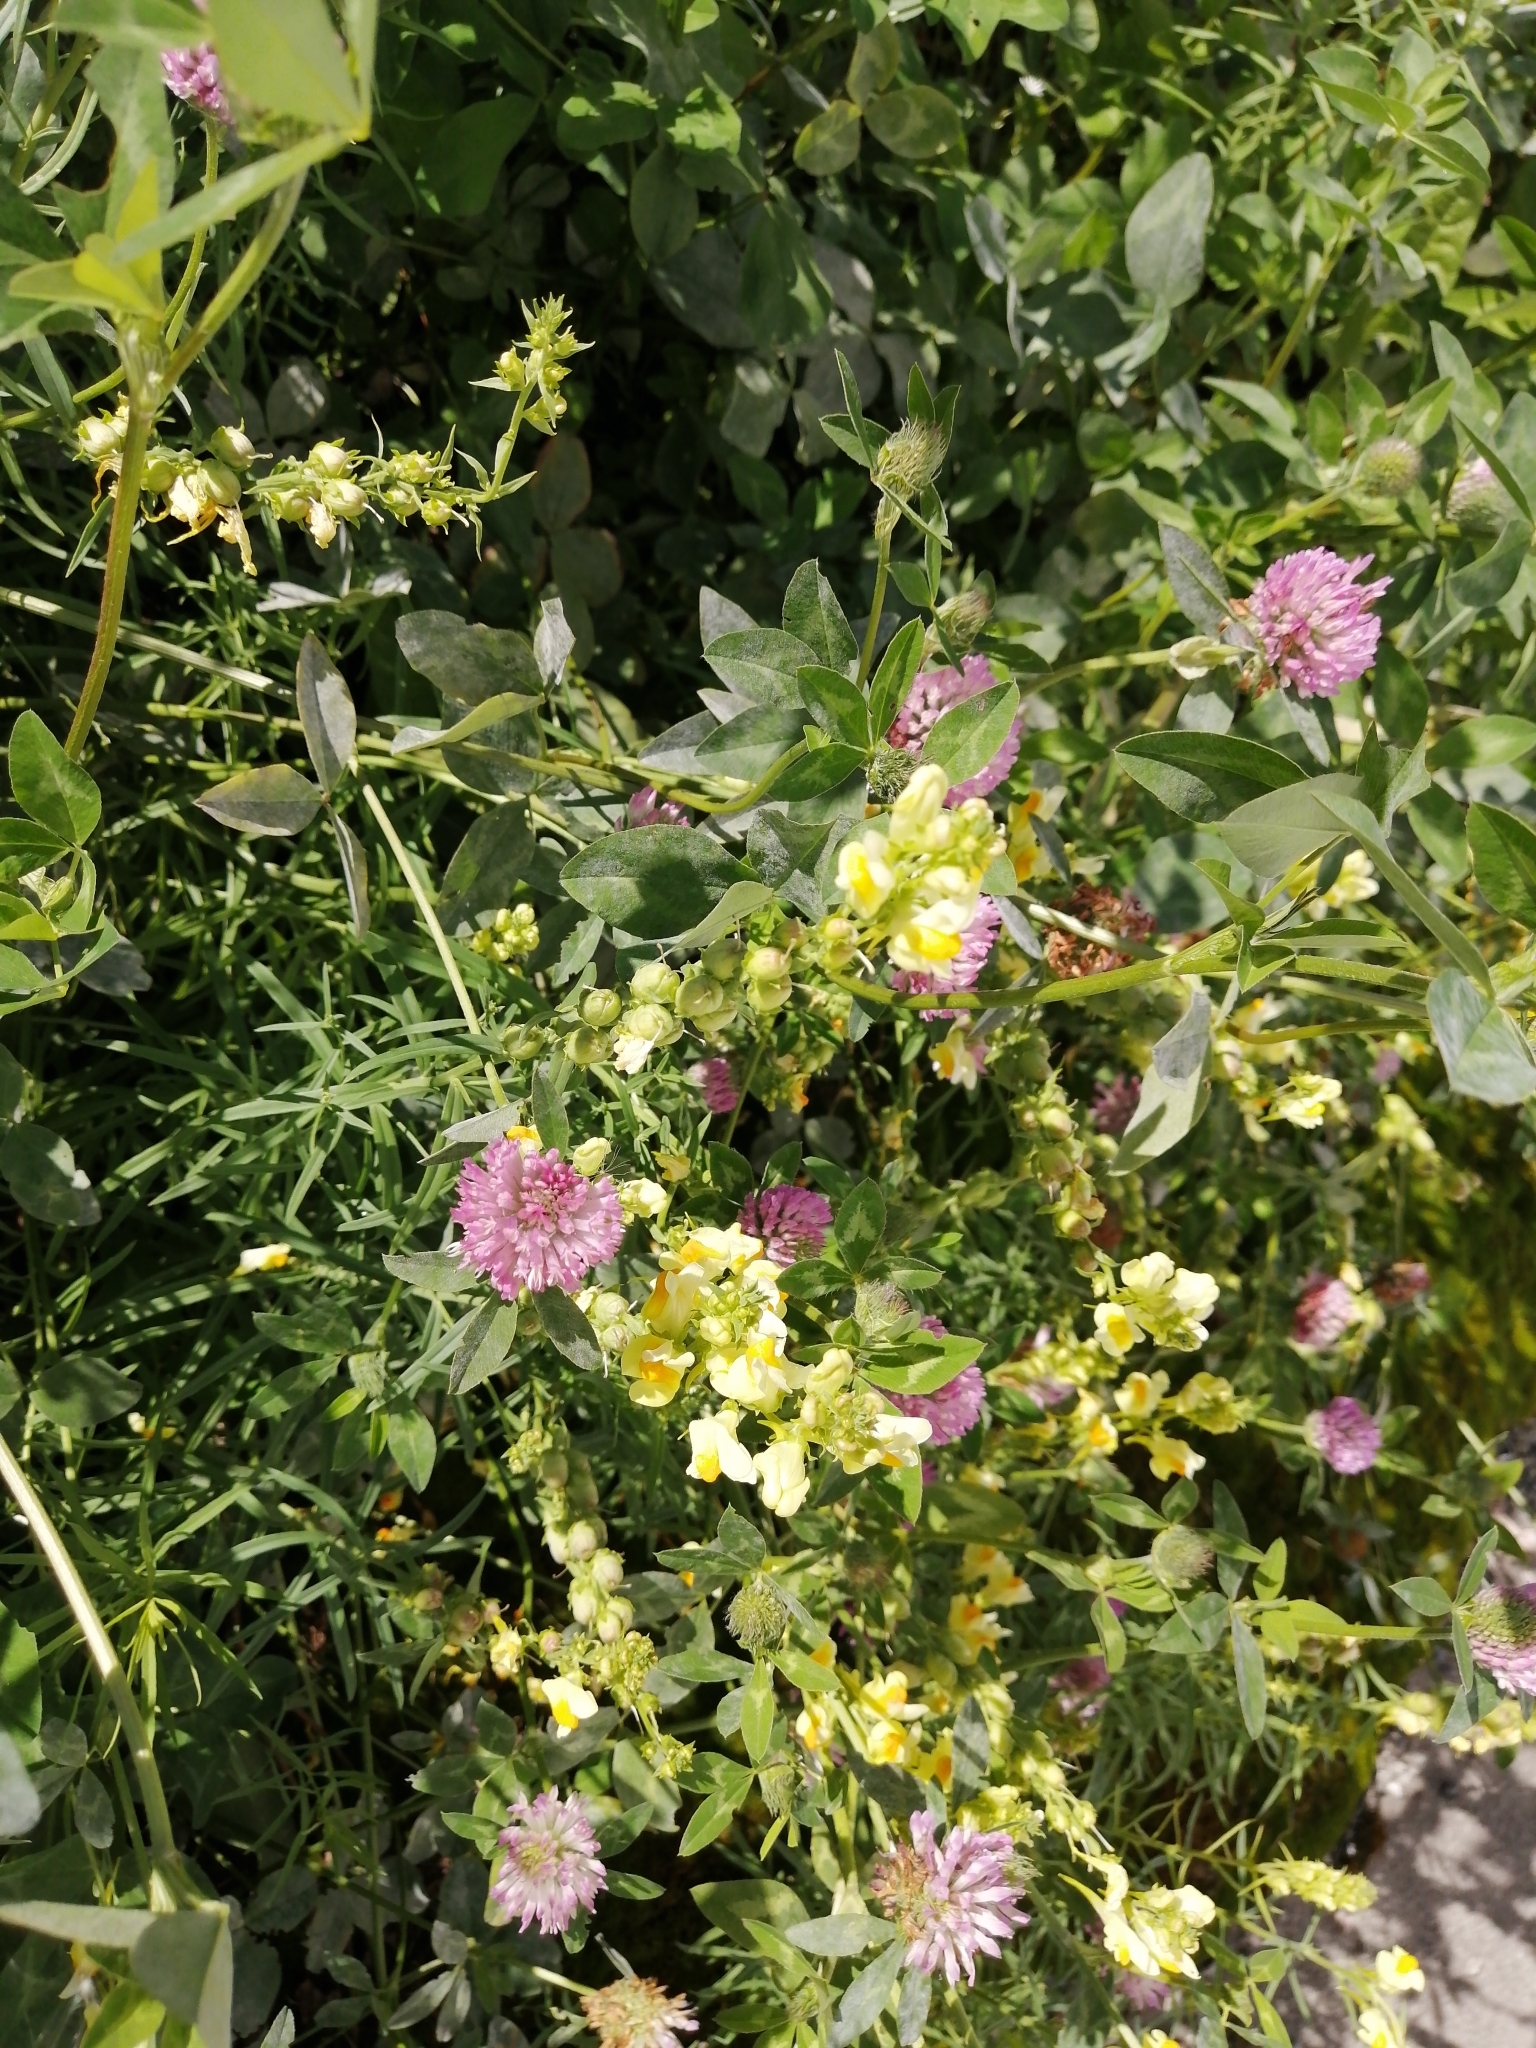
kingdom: Plantae
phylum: Tracheophyta
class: Magnoliopsida
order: Lamiales
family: Plantaginaceae
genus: Linaria
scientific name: Linaria vulgaris
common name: Butter and eggs
